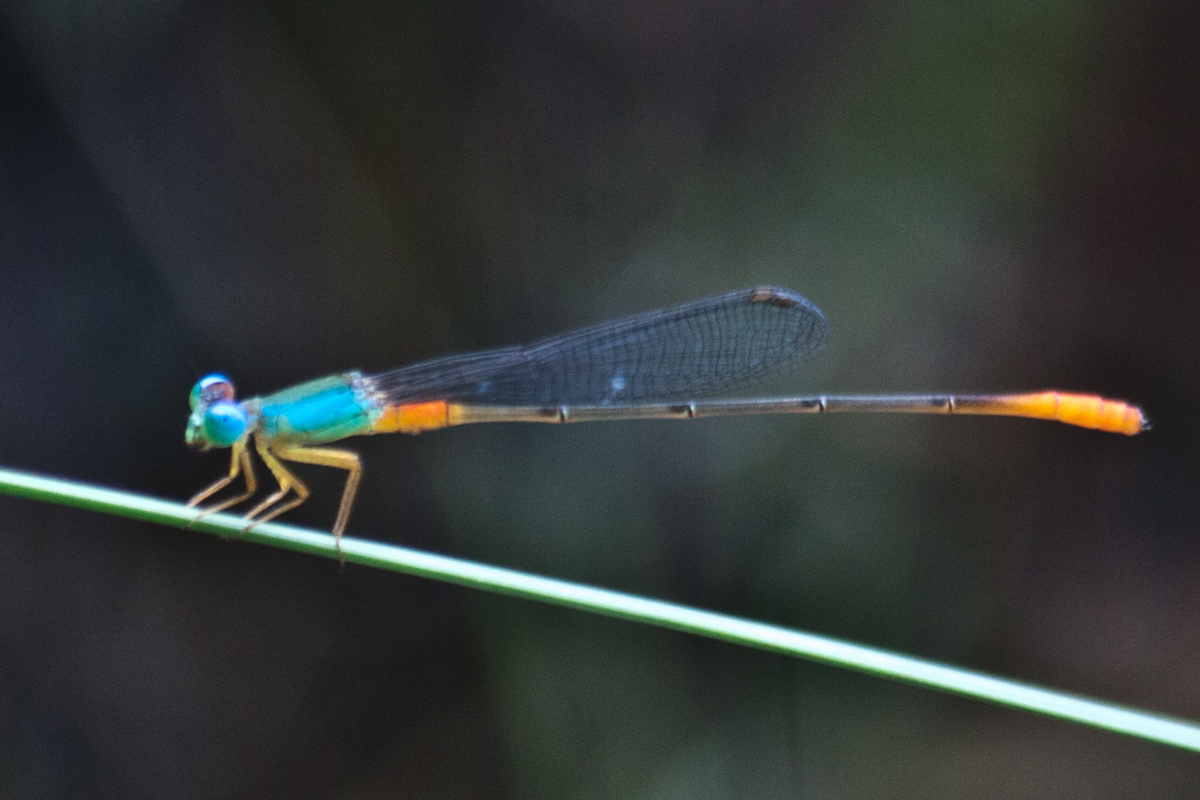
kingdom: Animalia
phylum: Arthropoda
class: Insecta
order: Odonata
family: Coenagrionidae
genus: Ceriagrion
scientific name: Ceriagrion cerinorubellum
